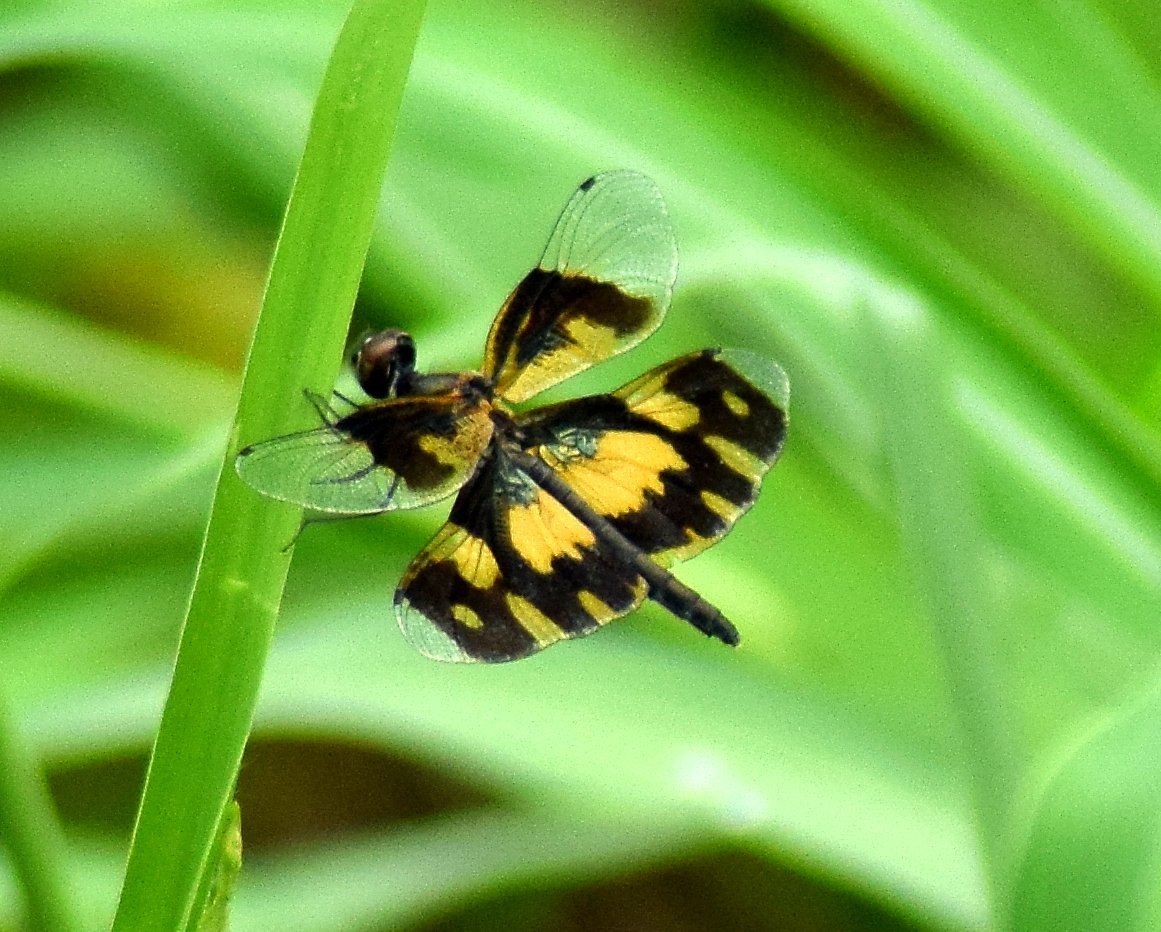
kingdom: Animalia
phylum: Arthropoda
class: Insecta
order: Odonata
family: Libellulidae
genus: Rhyothemis
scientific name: Rhyothemis variegata
